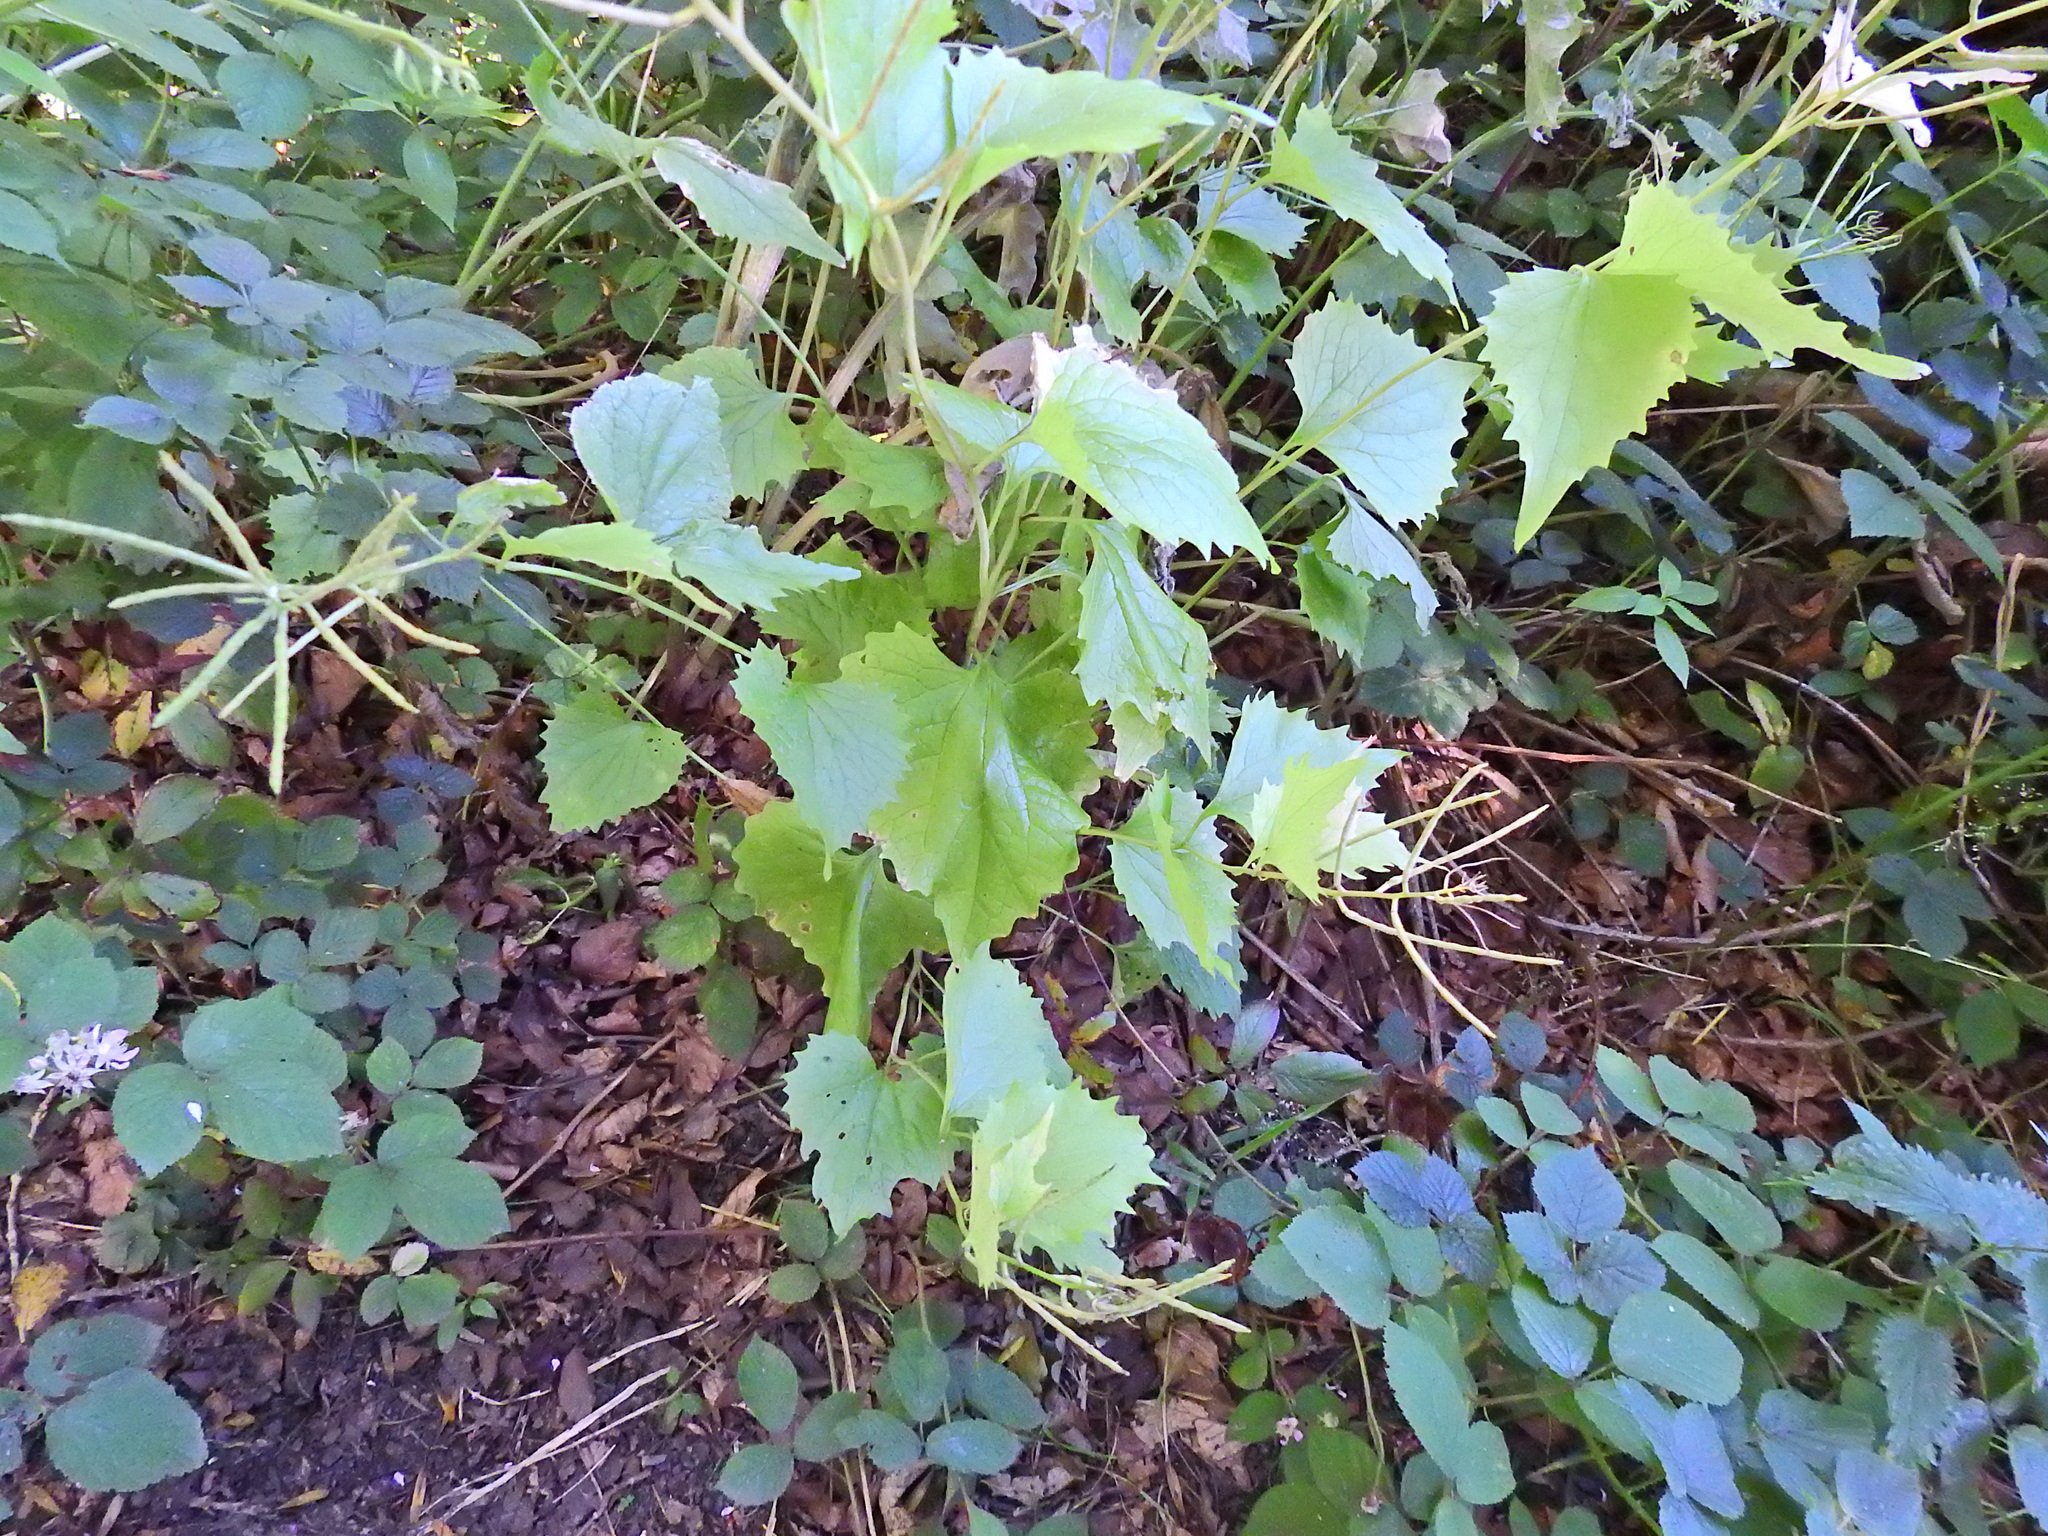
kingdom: Plantae
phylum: Tracheophyta
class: Magnoliopsida
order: Brassicales
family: Brassicaceae
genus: Alliaria
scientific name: Alliaria petiolata
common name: Garlic mustard
